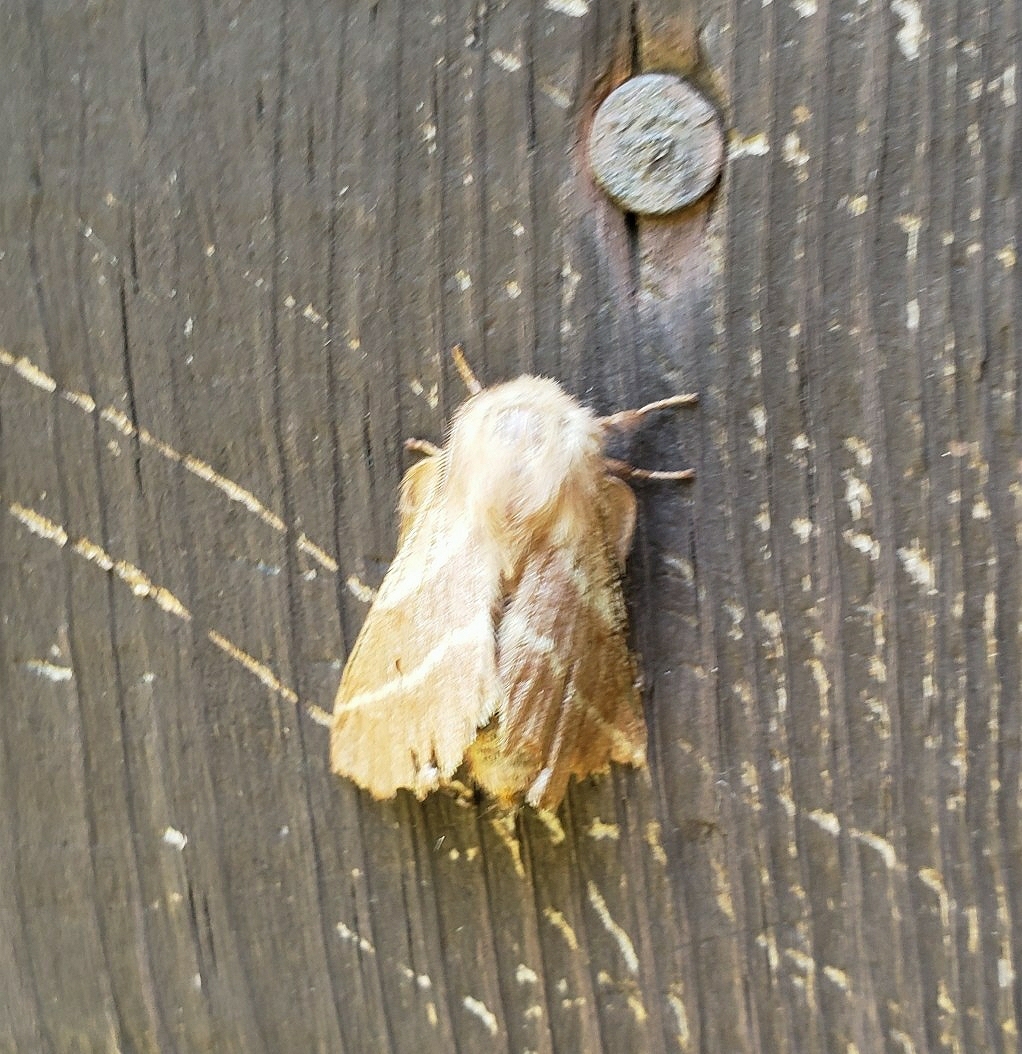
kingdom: Animalia
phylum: Arthropoda
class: Insecta
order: Lepidoptera
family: Lasiocampidae
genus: Malacosoma
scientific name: Malacosoma americana
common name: Eastern tent caterpillar moth
